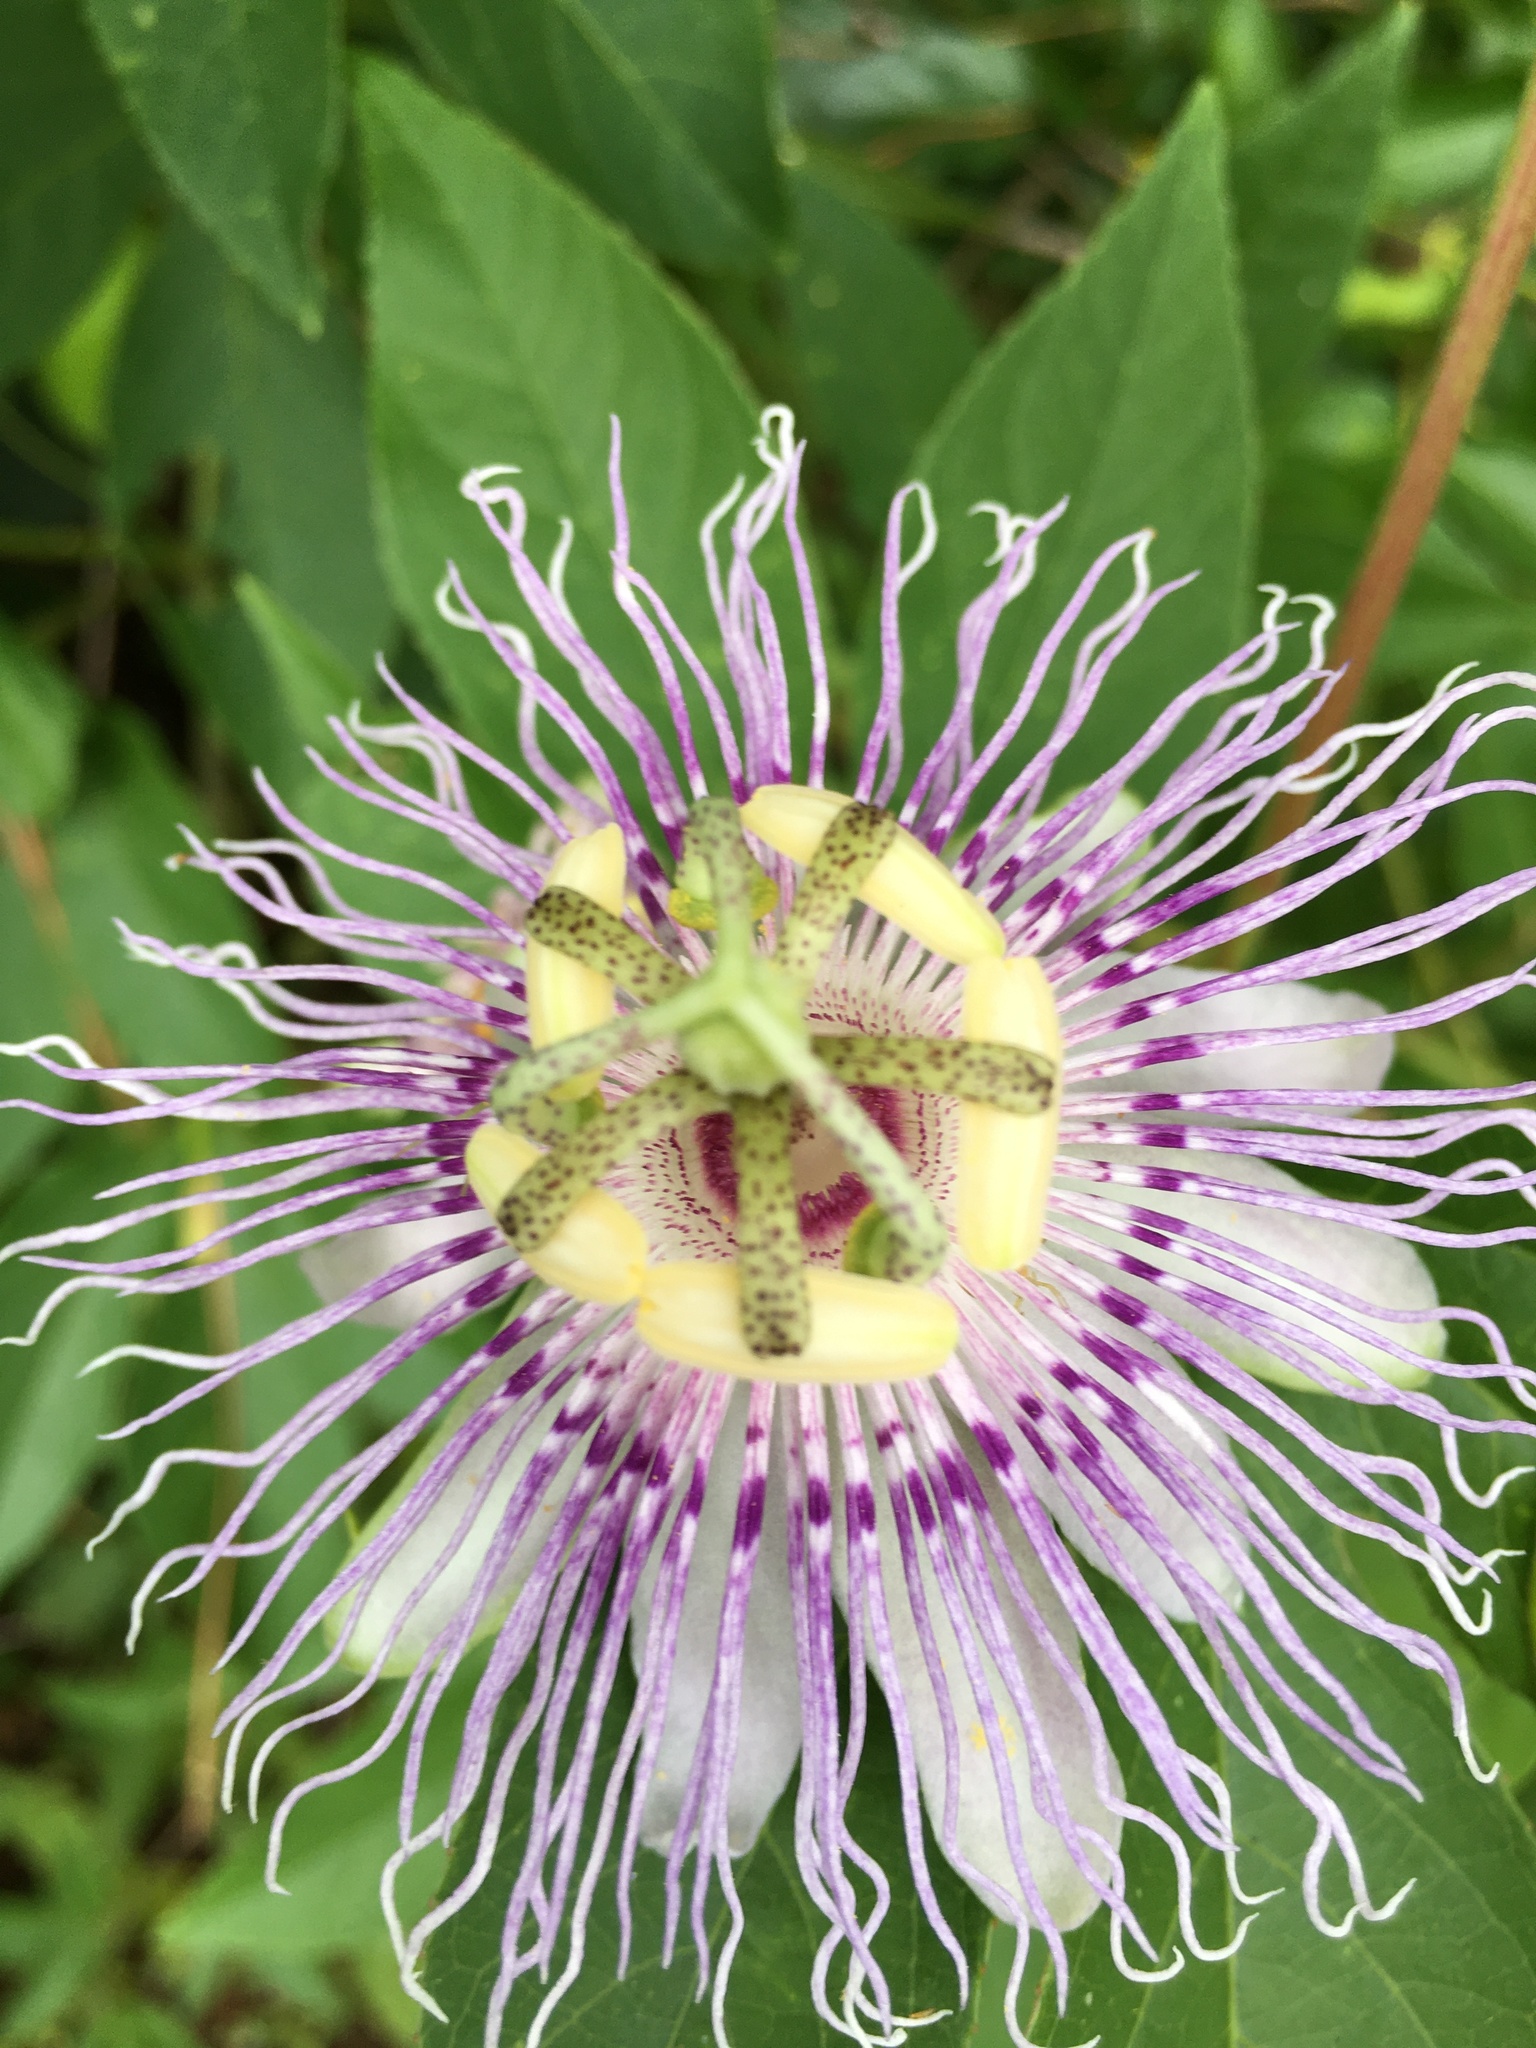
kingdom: Plantae
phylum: Tracheophyta
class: Magnoliopsida
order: Malpighiales
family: Passifloraceae
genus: Passiflora
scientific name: Passiflora incarnata
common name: Apricot-vine
